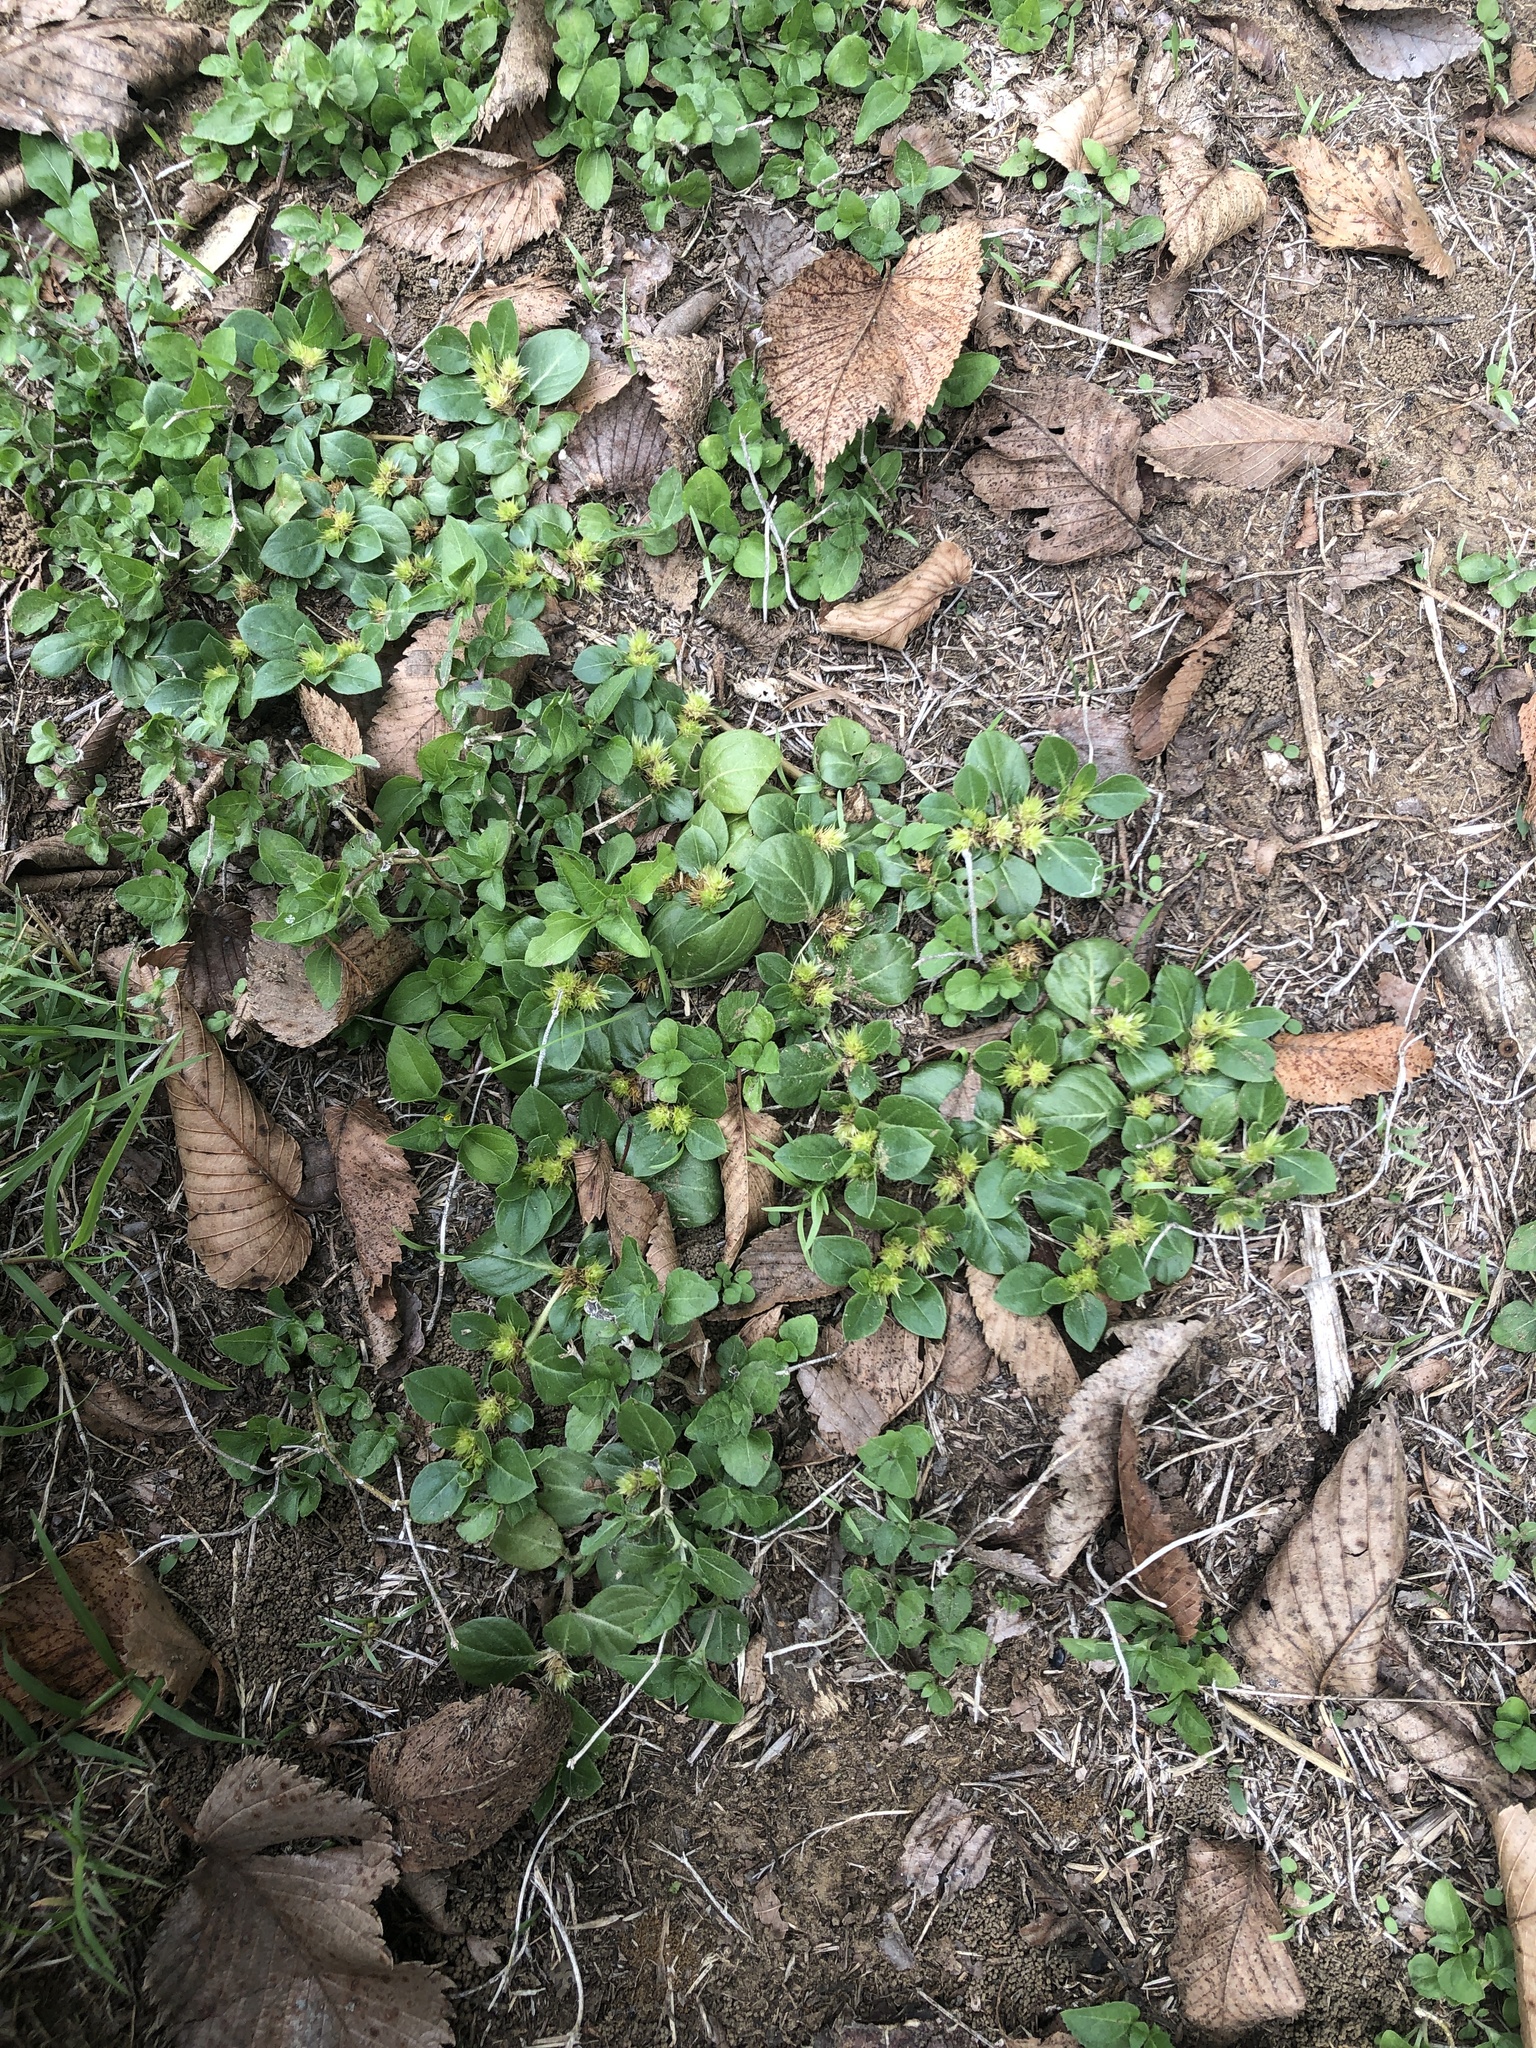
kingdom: Plantae
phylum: Tracheophyta
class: Magnoliopsida
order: Caryophyllales
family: Amaranthaceae
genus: Alternanthera
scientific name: Alternanthera pungens
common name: Khakiweed
